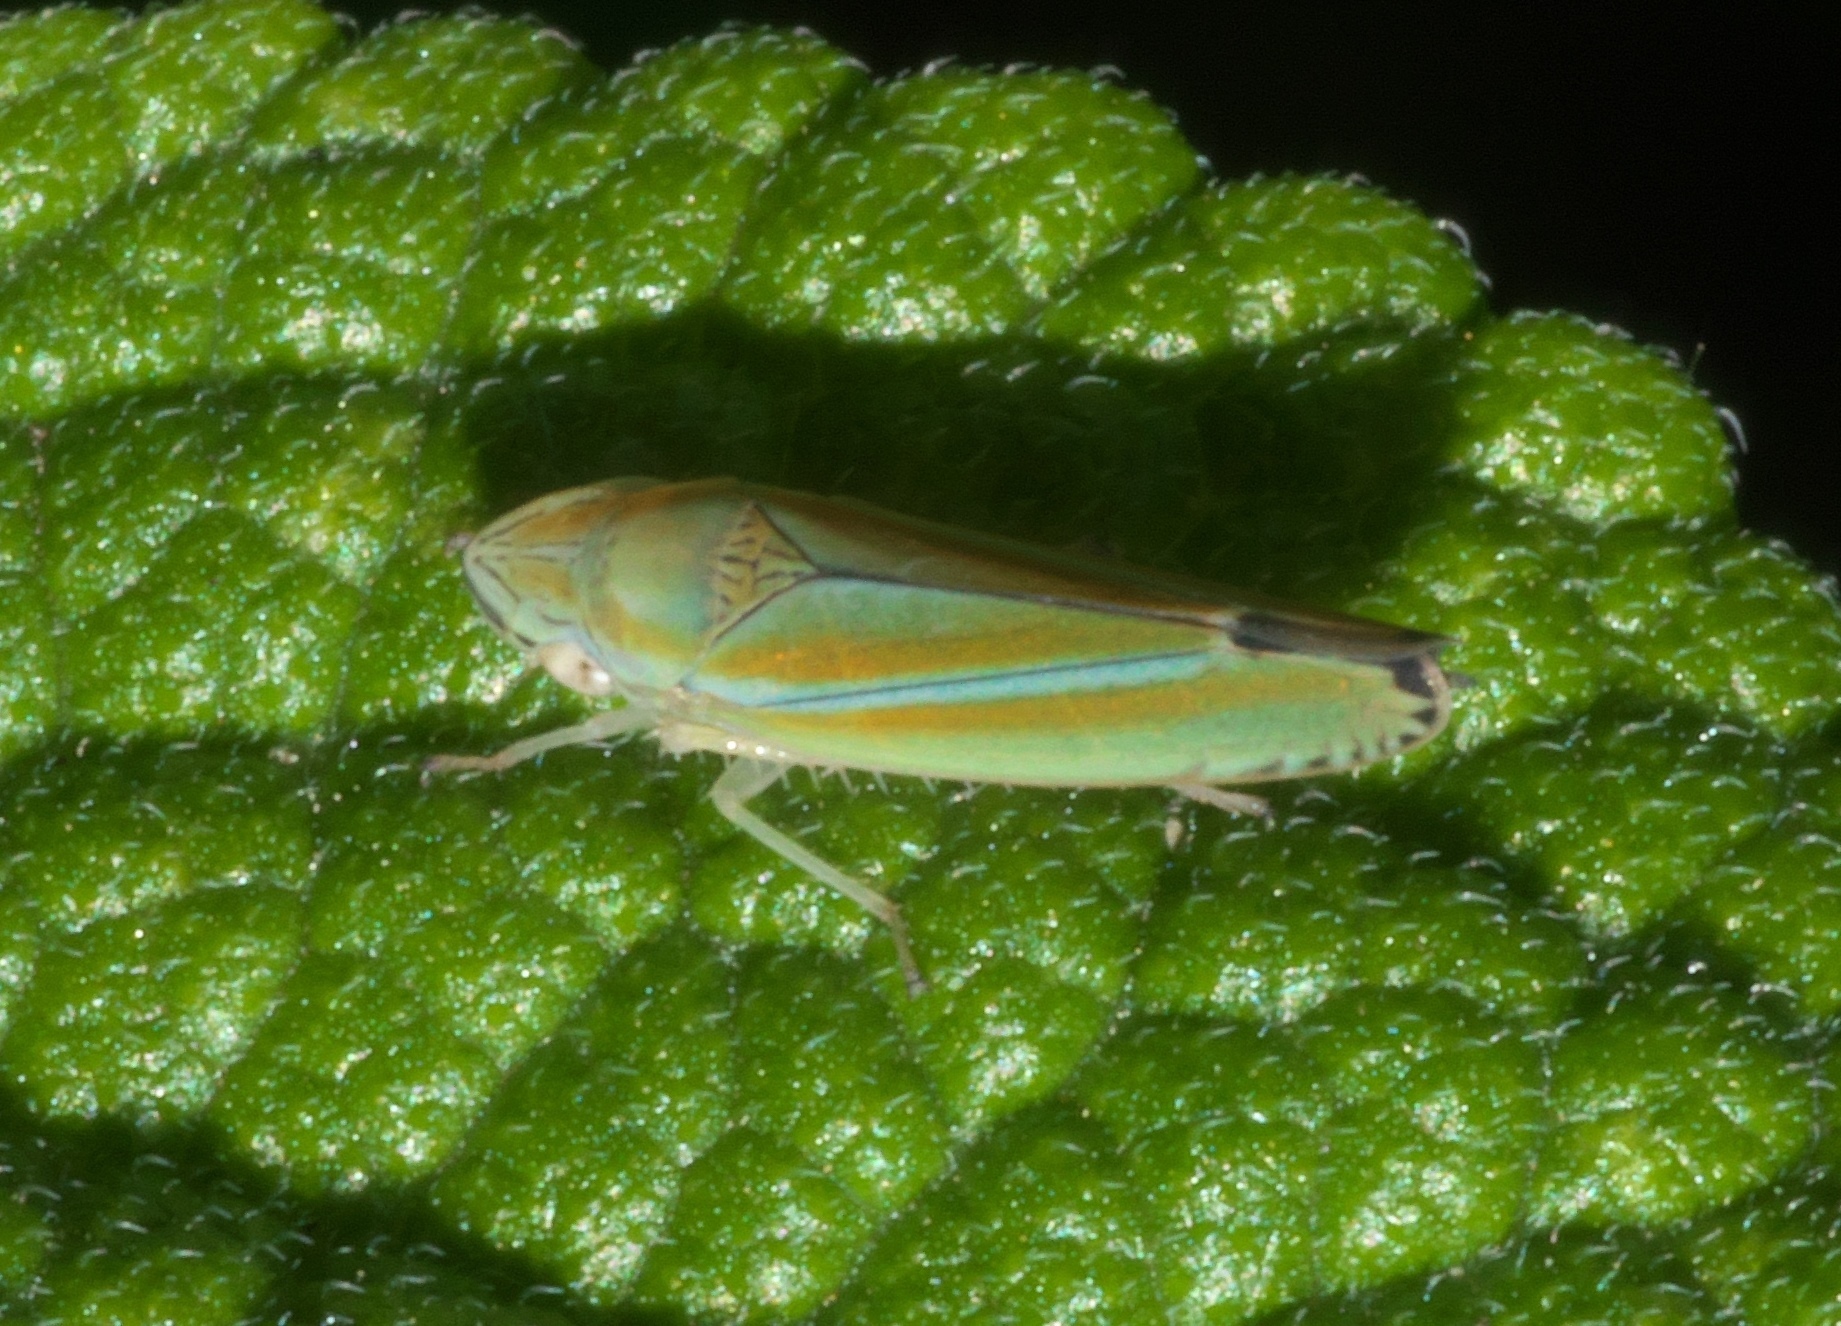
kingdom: Animalia
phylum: Arthropoda
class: Insecta
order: Hemiptera
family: Cicadellidae
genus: Graphocephala
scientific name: Graphocephala versuta
